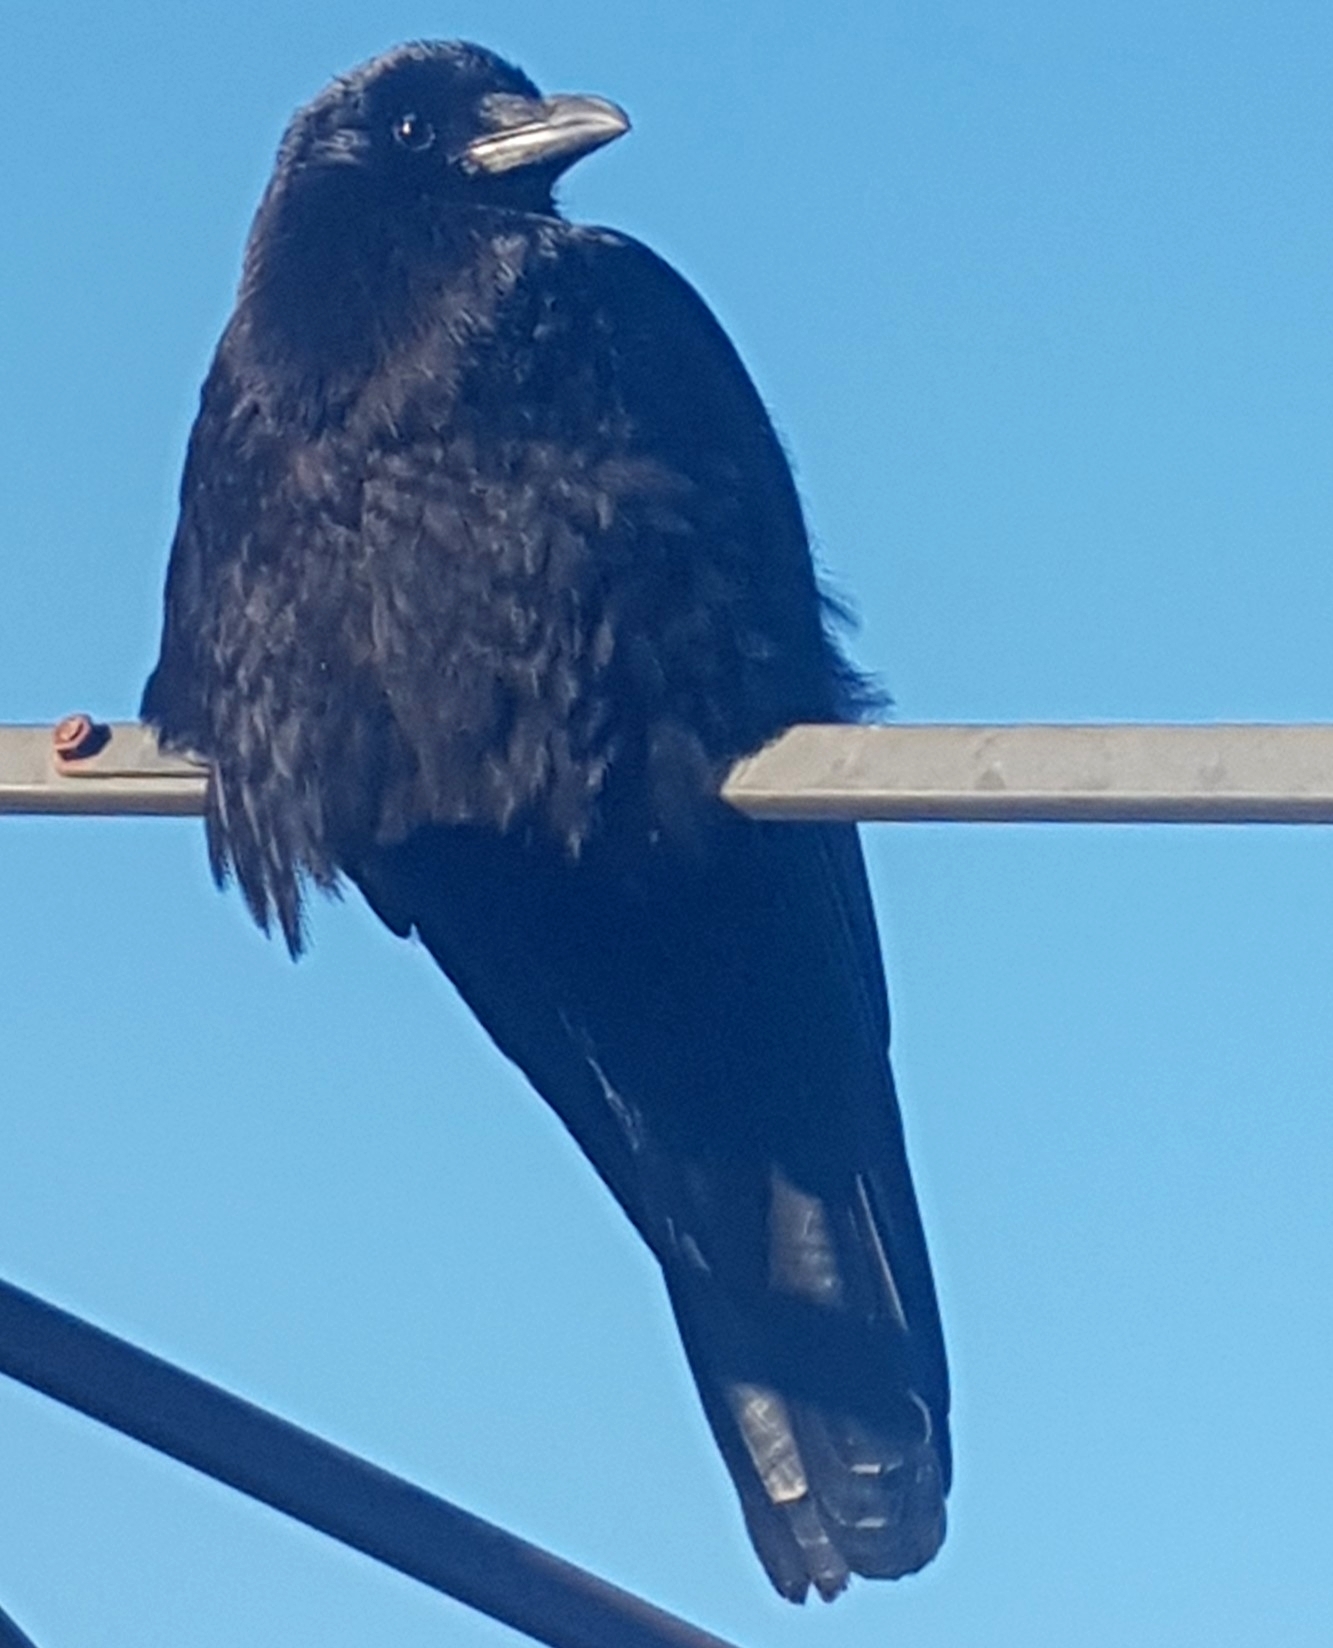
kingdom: Animalia
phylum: Chordata
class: Aves
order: Passeriformes
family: Corvidae
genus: Corvus
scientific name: Corvus brachyrhynchos
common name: American crow
